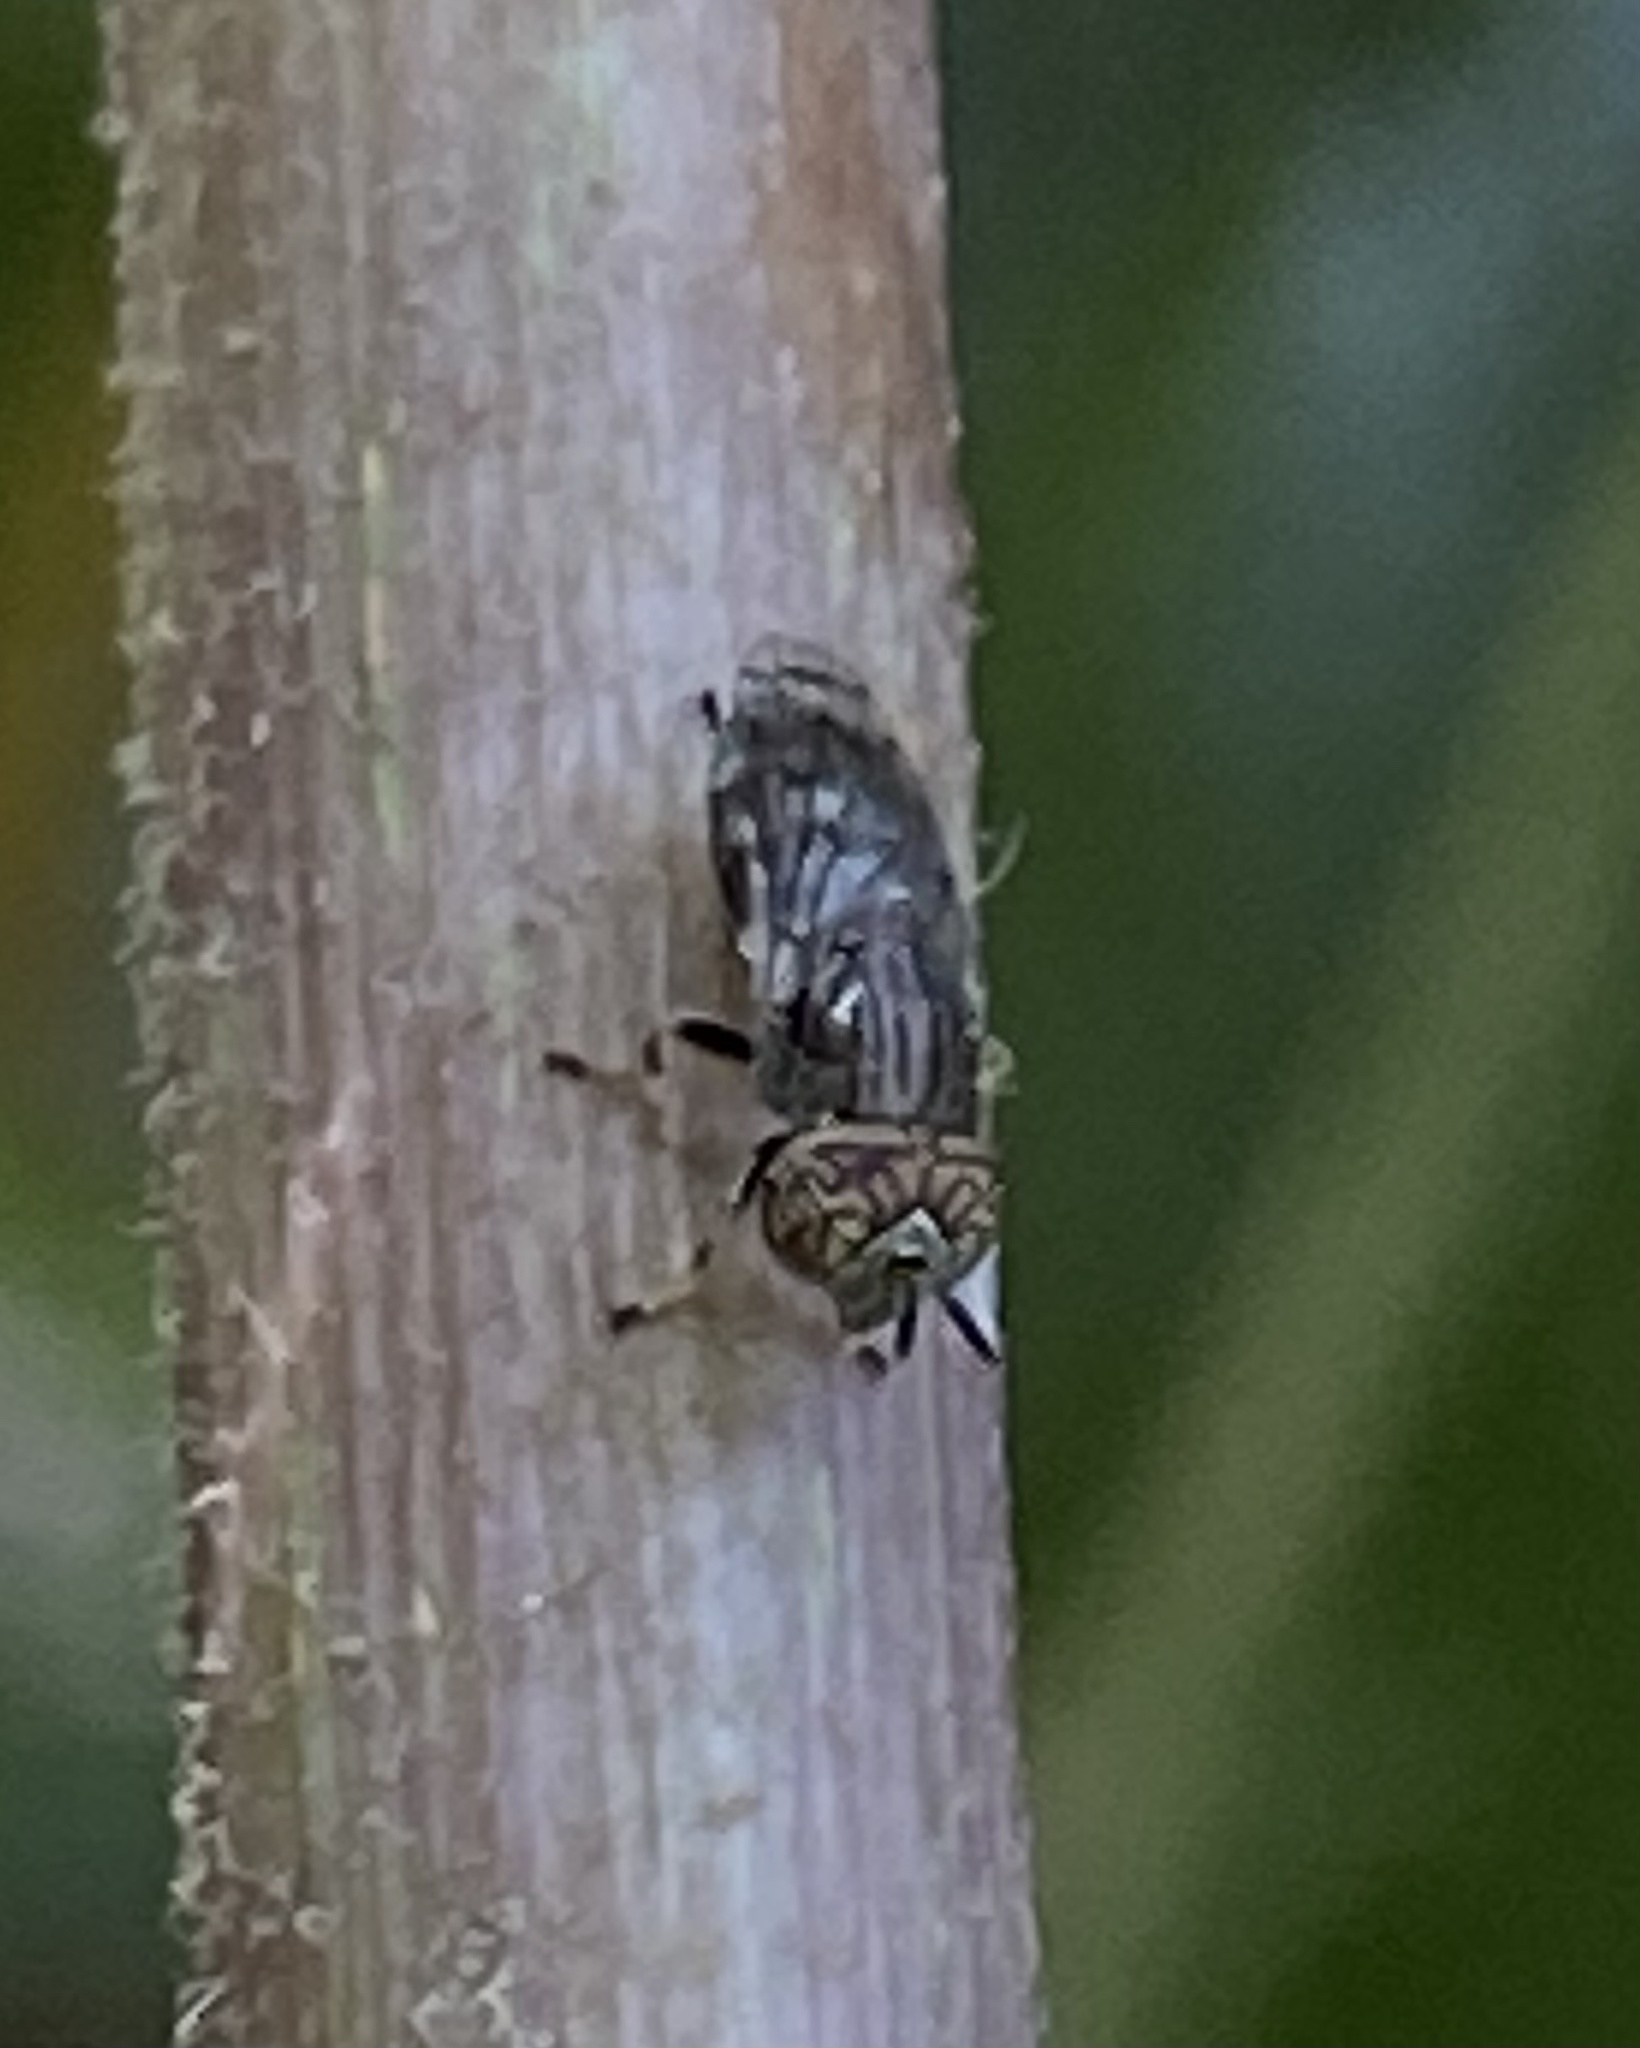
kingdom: Animalia
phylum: Arthropoda
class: Insecta
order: Diptera
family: Syrphidae
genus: Orthonevra
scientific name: Orthonevra nitida
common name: Wavy mucksucker
